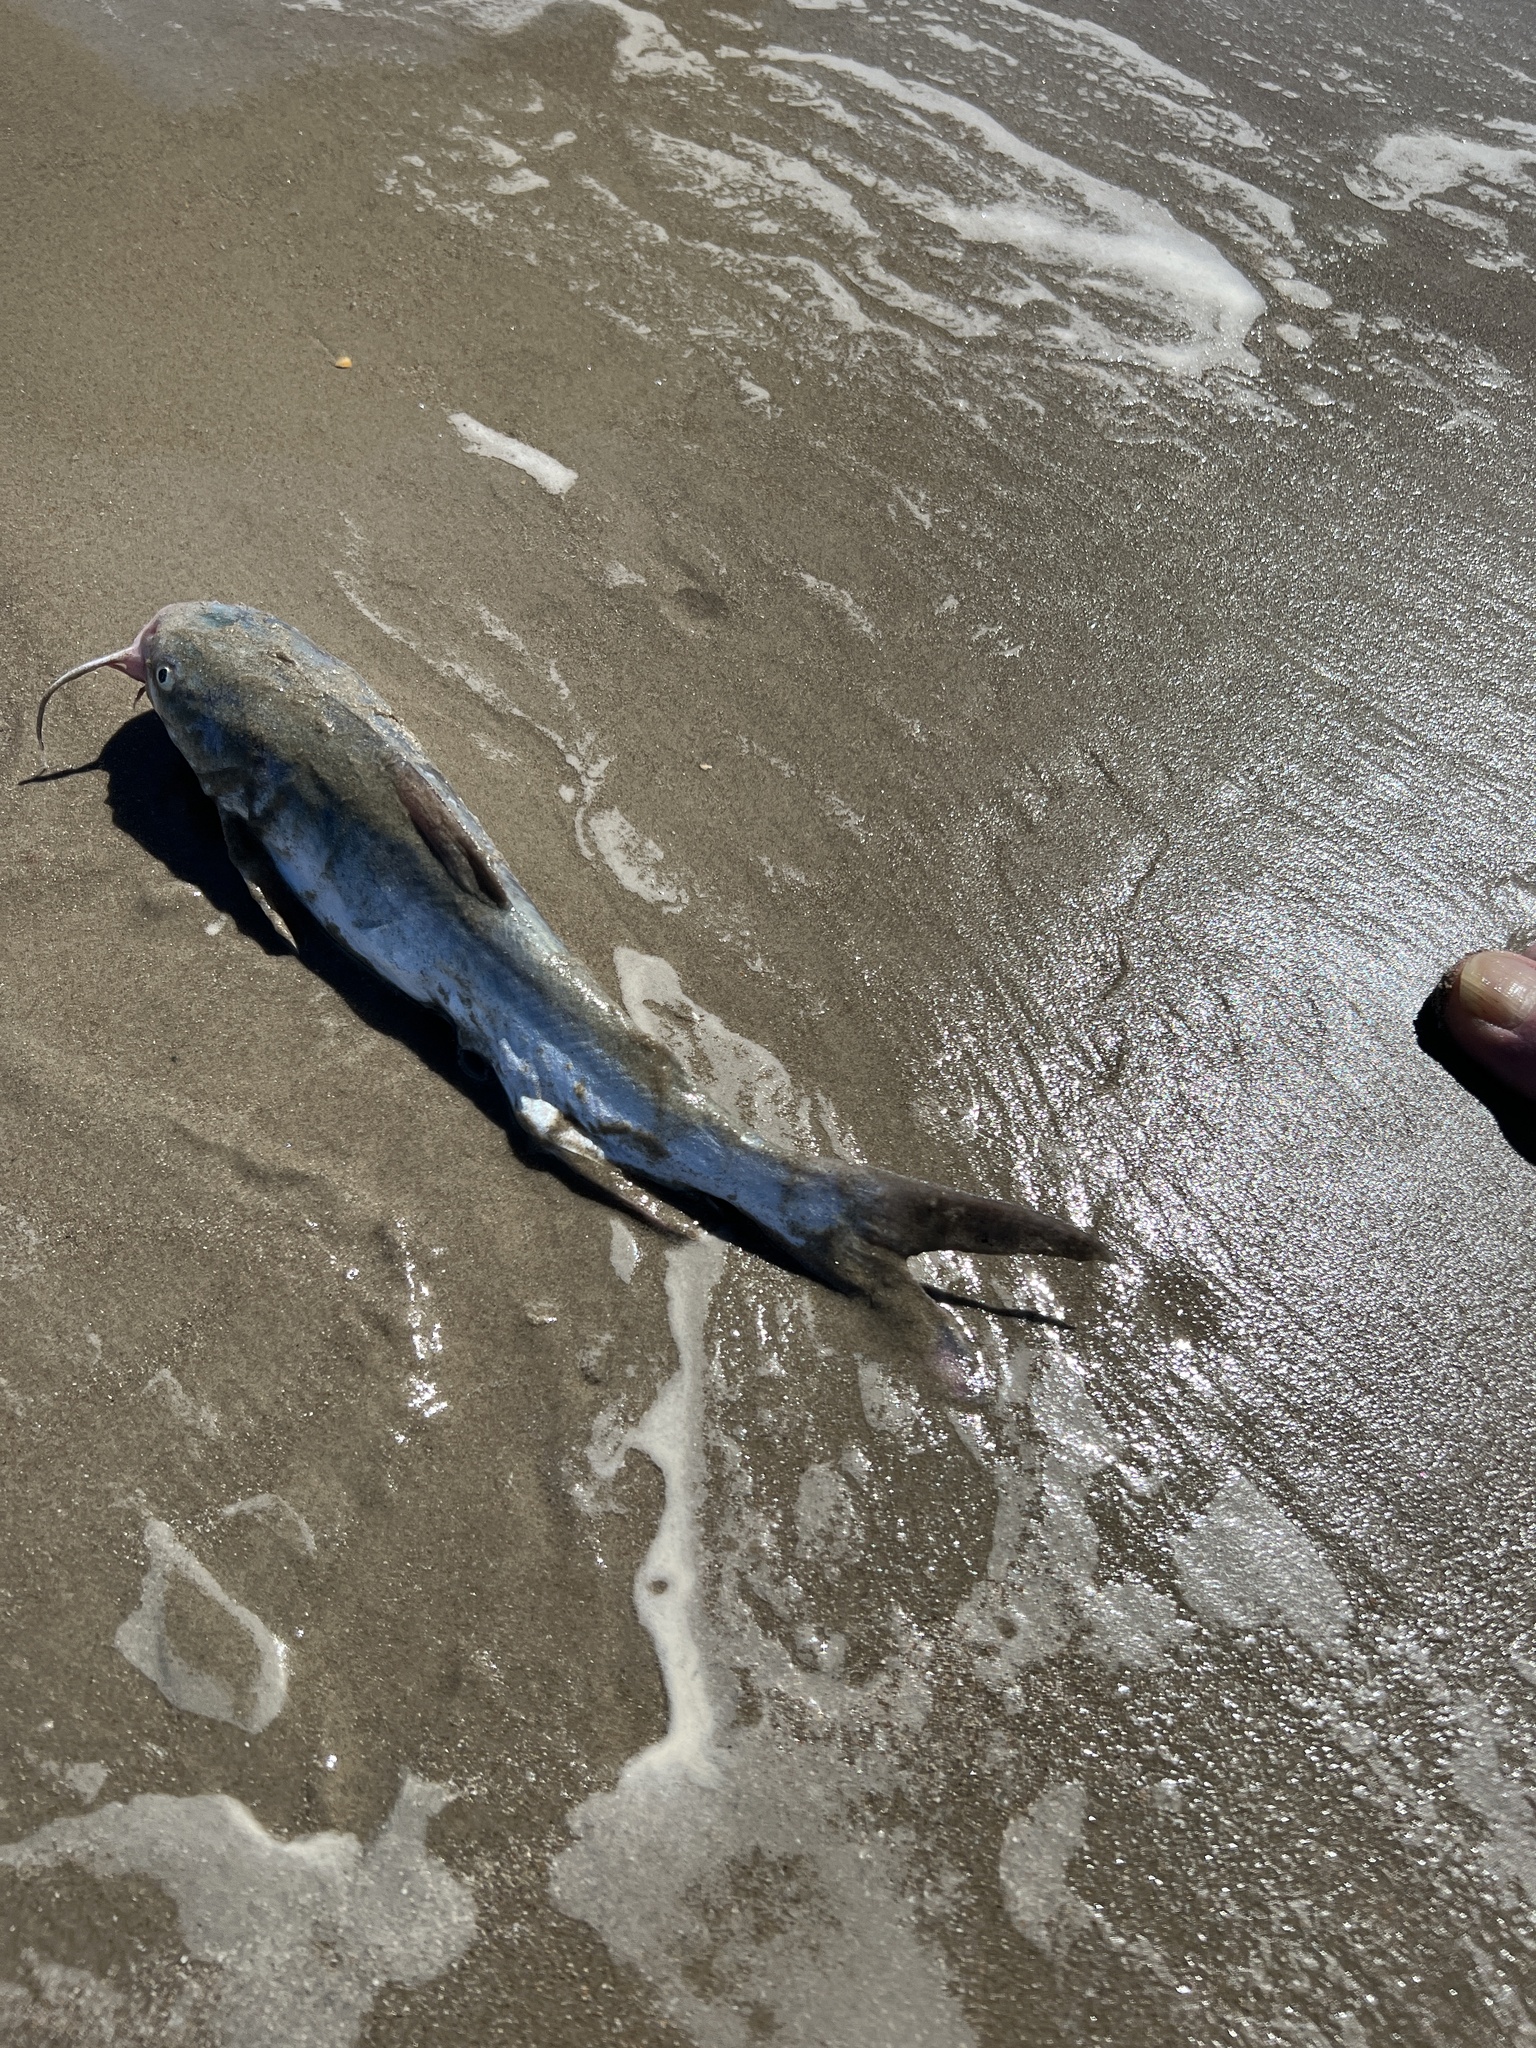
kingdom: Animalia
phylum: Chordata
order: Siluriformes
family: Ariidae
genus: Ariopsis
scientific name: Ariopsis felis
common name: Hardhead catfish
